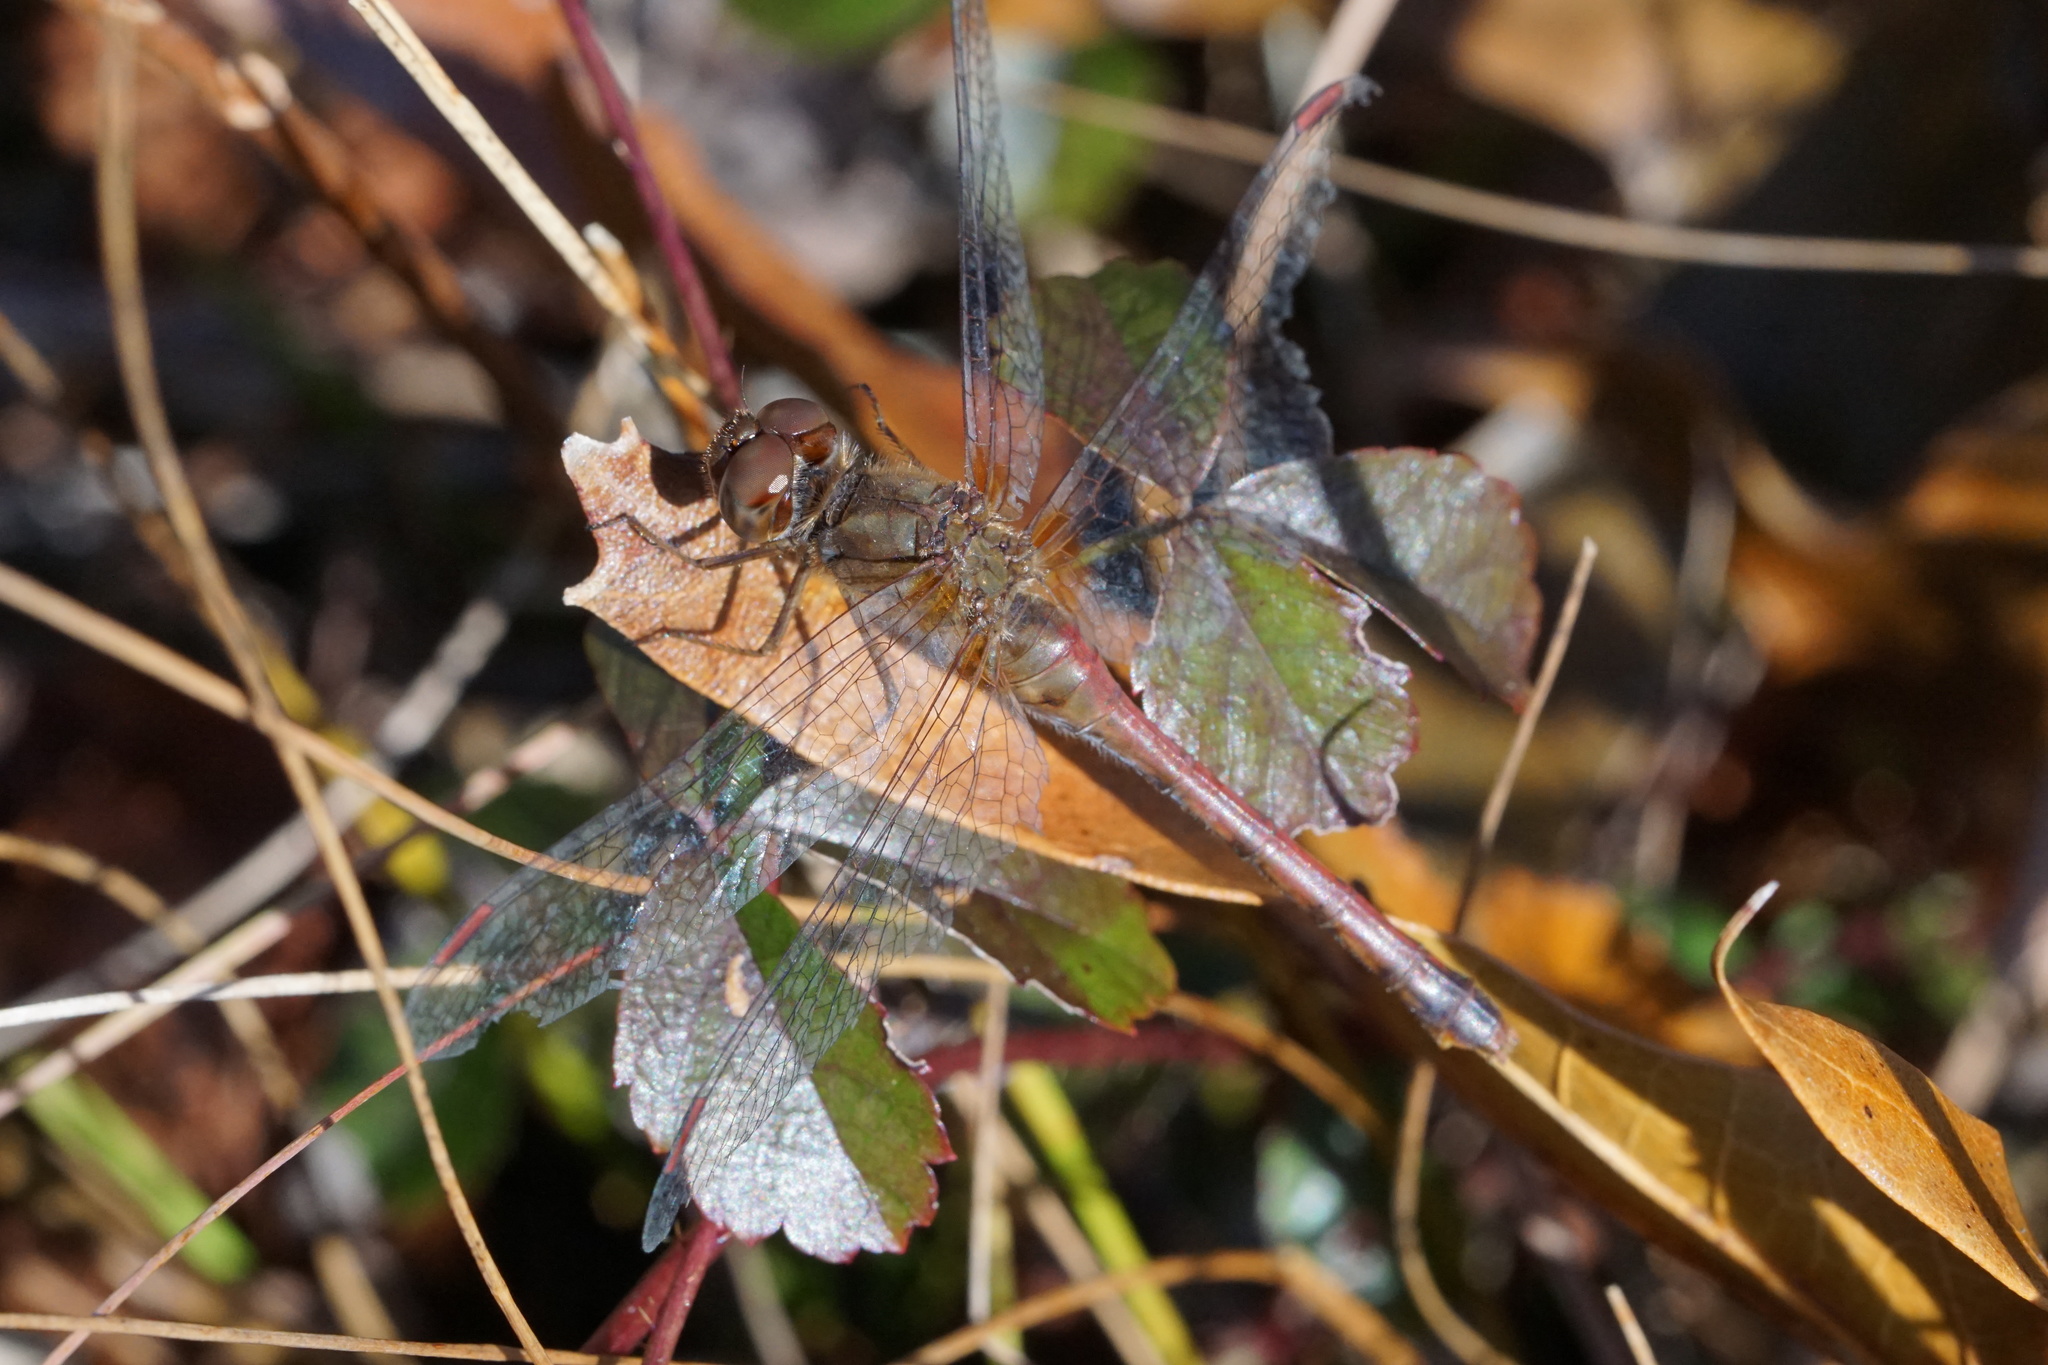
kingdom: Animalia
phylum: Arthropoda
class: Insecta
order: Odonata
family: Libellulidae
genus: Sympetrum
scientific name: Sympetrum vicinum
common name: Autumn meadowhawk
